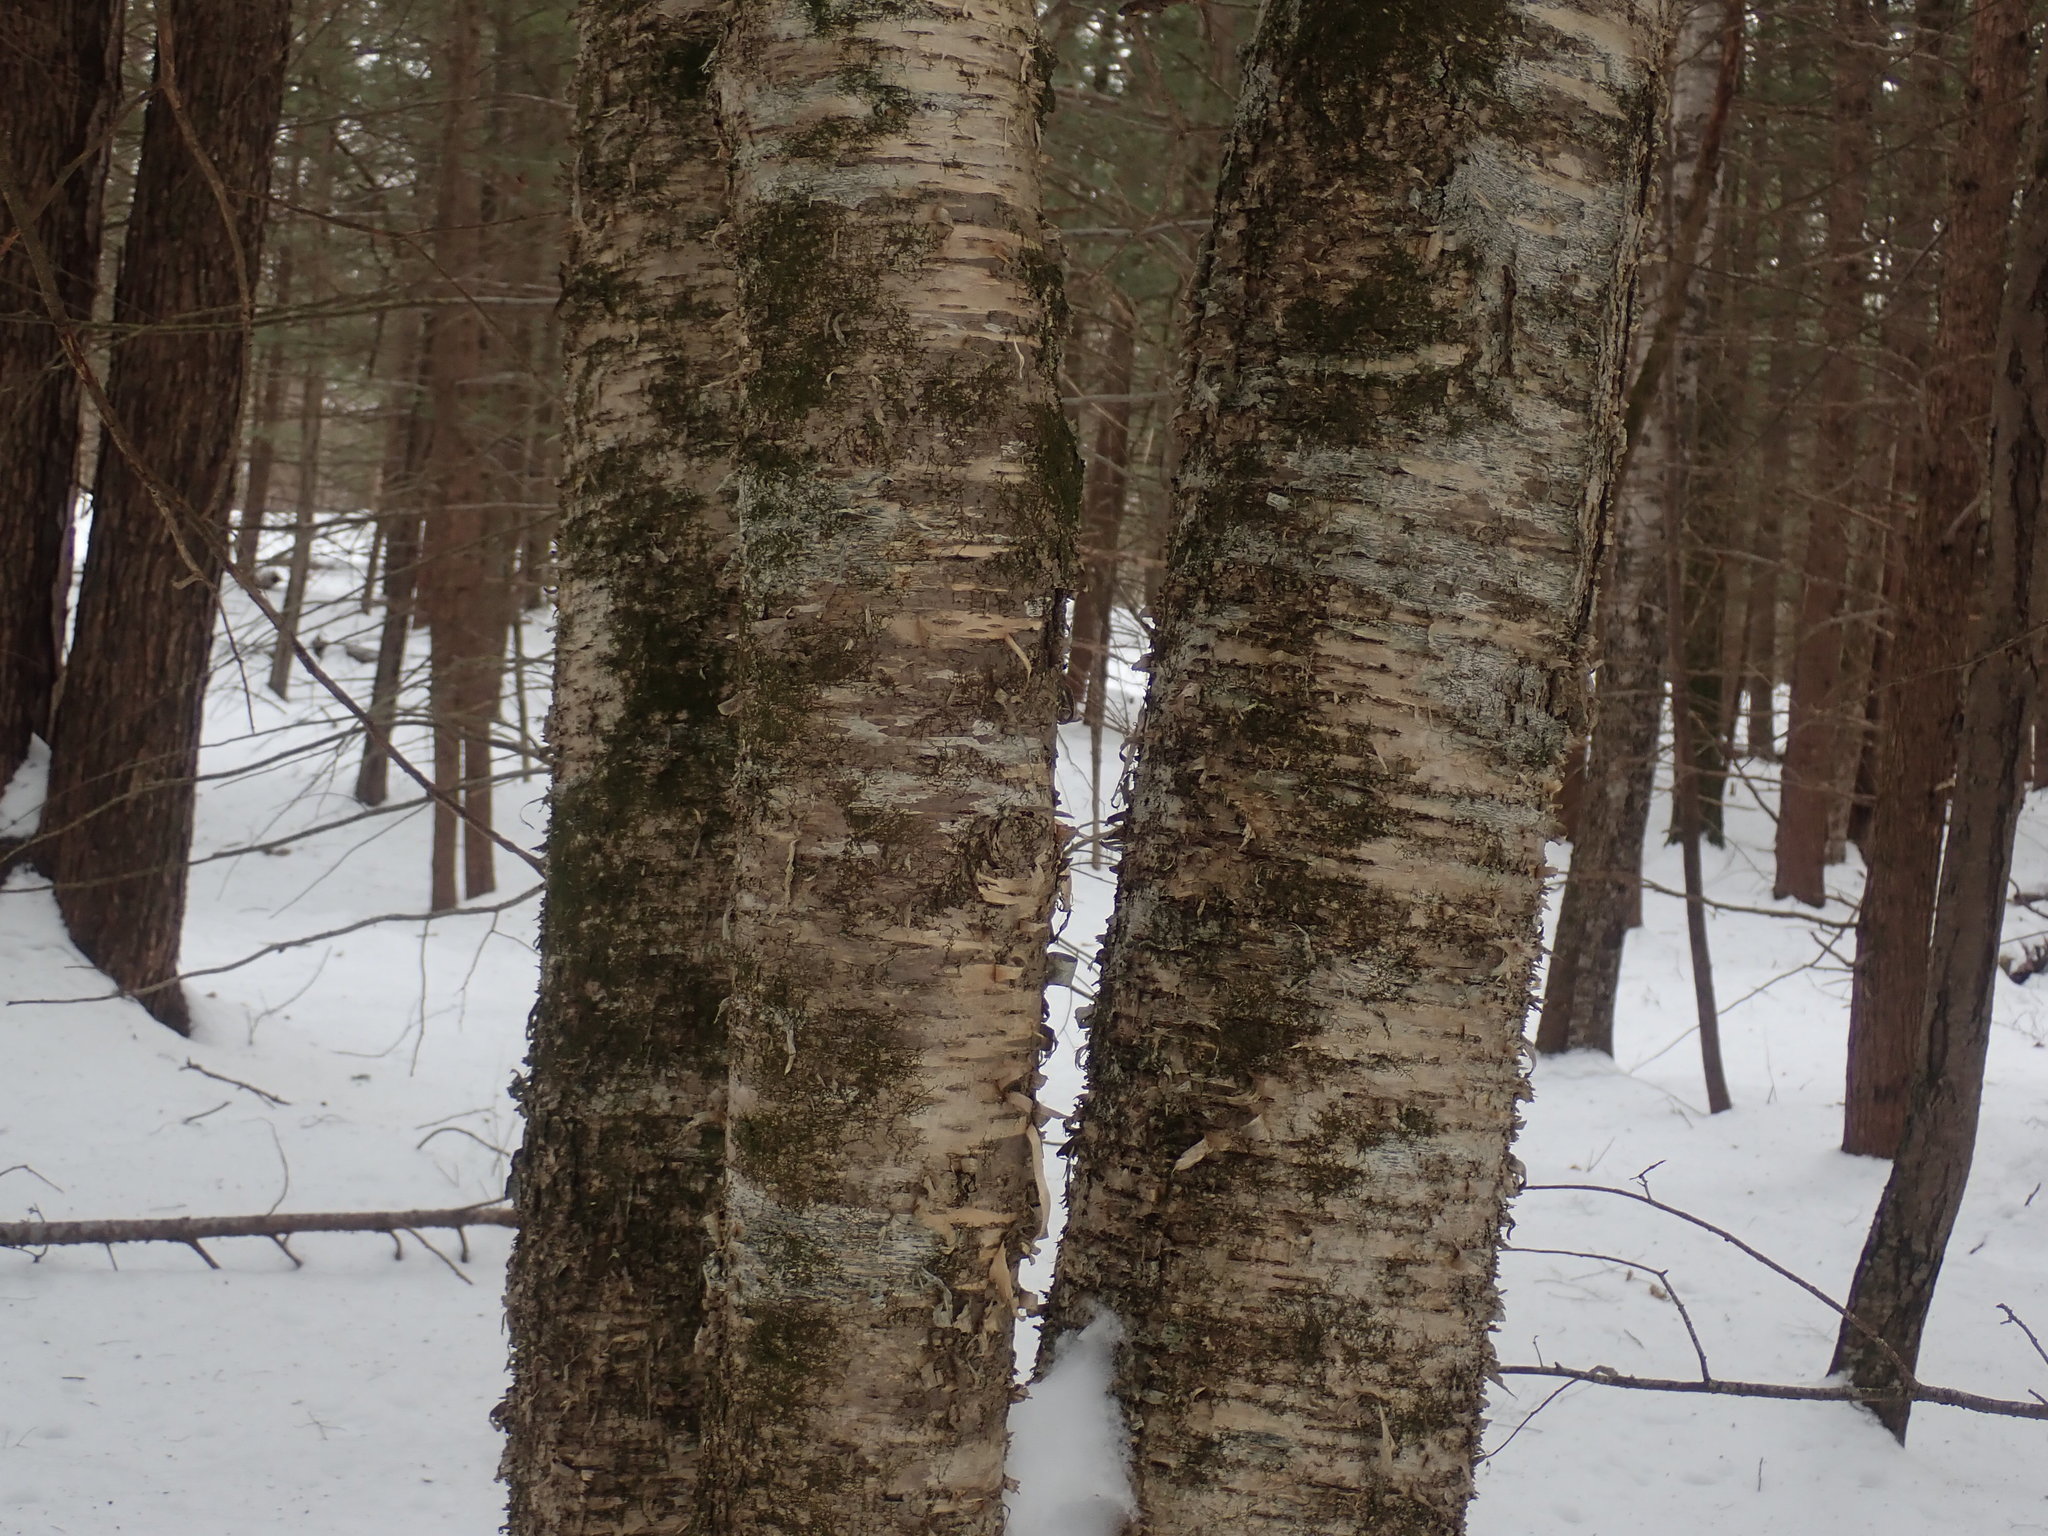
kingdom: Plantae
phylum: Tracheophyta
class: Magnoliopsida
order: Fagales
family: Betulaceae
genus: Betula
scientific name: Betula alleghaniensis
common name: Yellow birch
